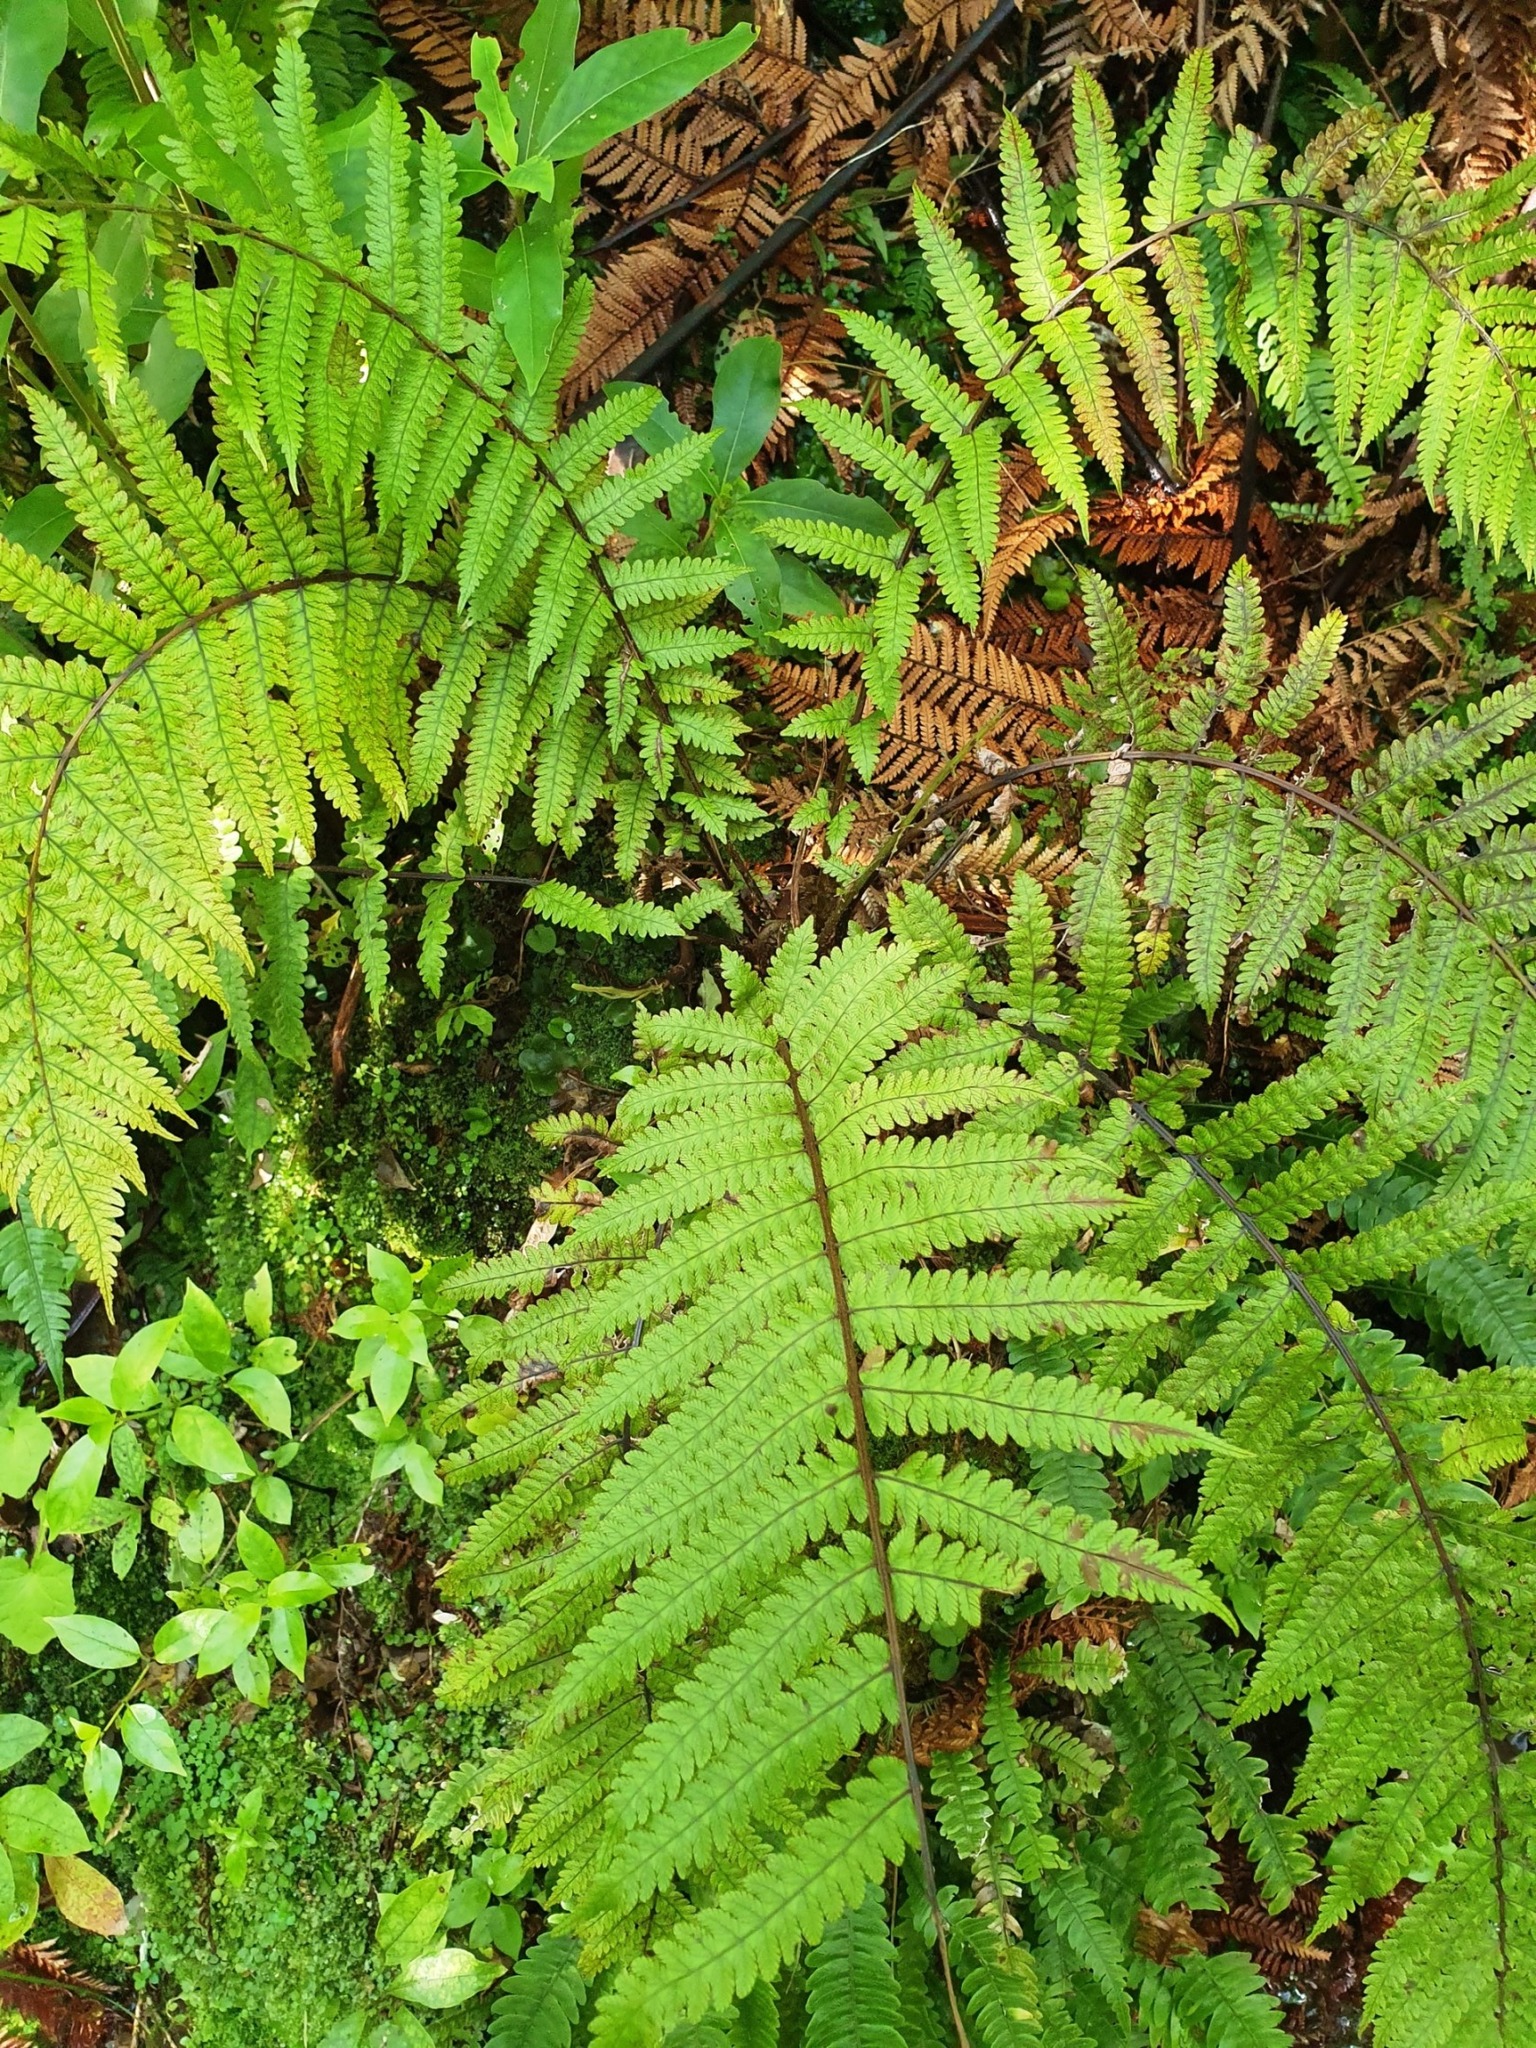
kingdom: Plantae
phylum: Tracheophyta
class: Polypodiopsida
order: Polypodiales
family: Thelypteridaceae
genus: Pakau
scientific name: Pakau pennigera
